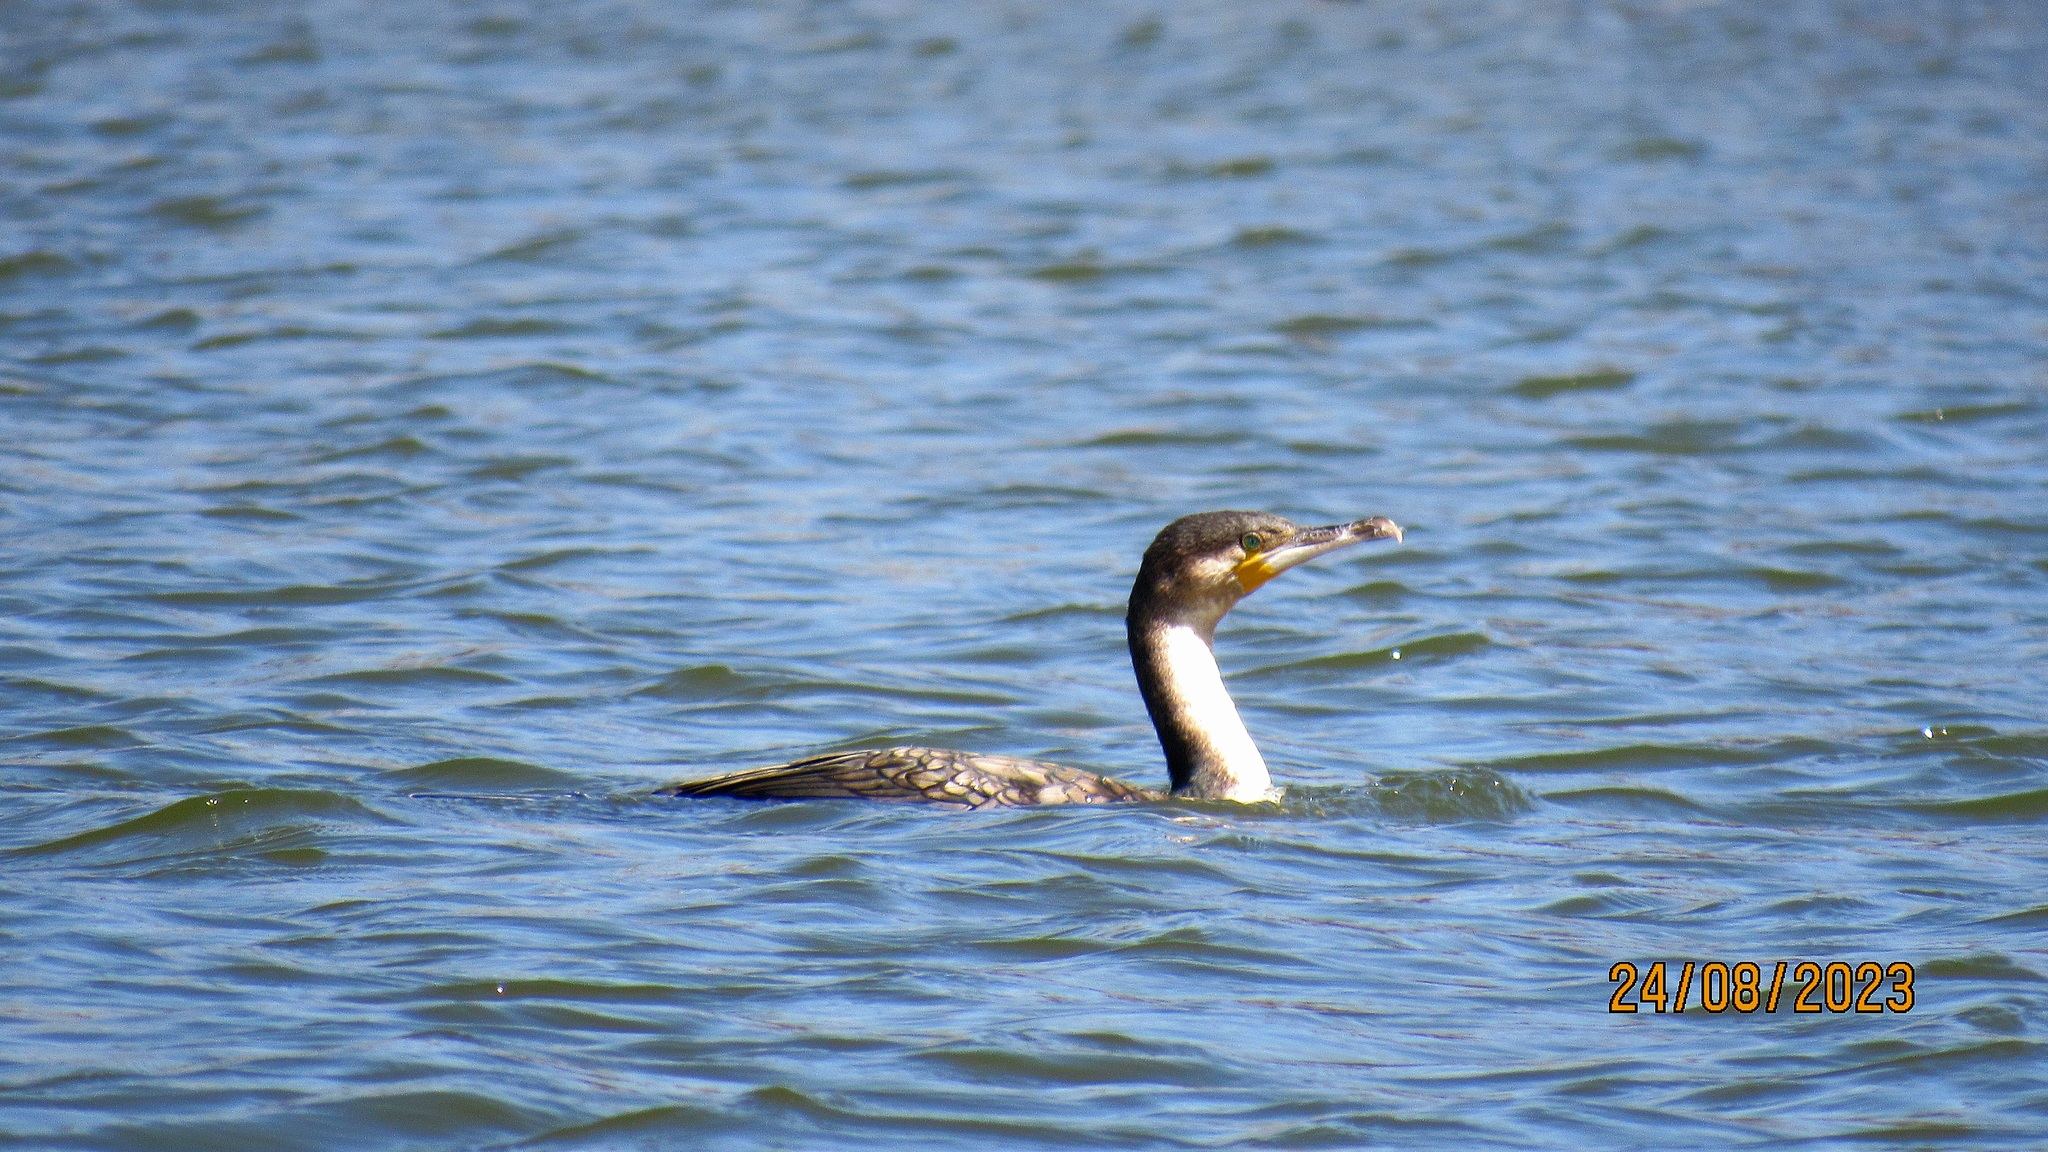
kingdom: Animalia
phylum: Chordata
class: Aves
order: Suliformes
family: Phalacrocoracidae
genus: Phalacrocorax
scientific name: Phalacrocorax carbo
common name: Great cormorant
